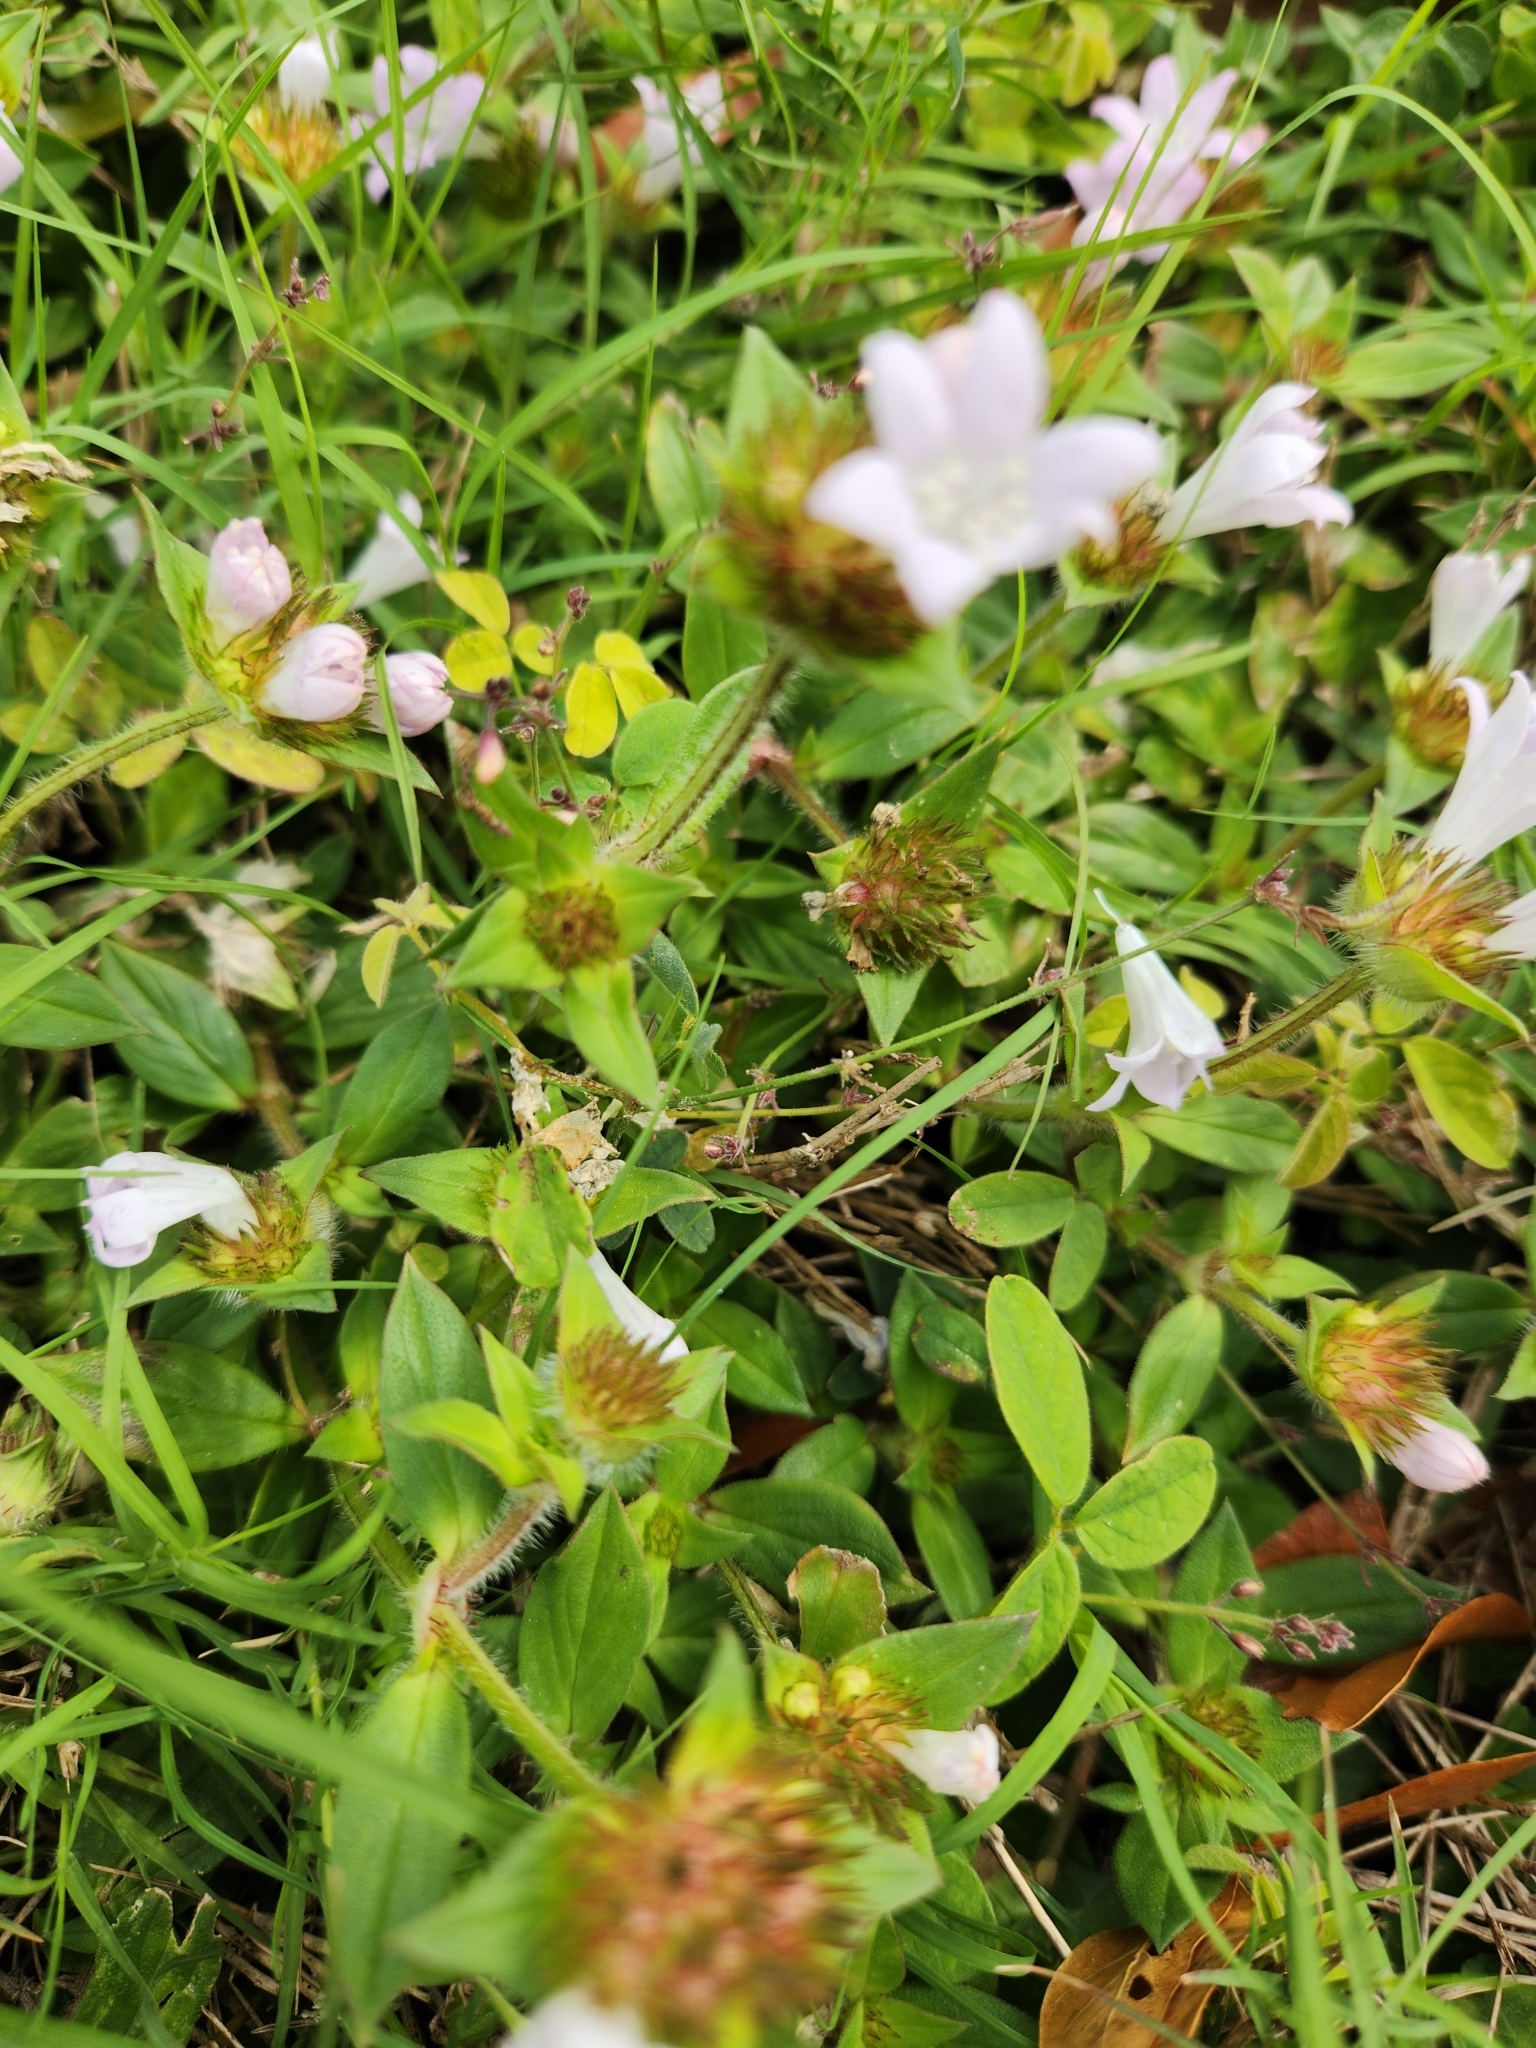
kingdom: Plantae
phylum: Tracheophyta
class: Magnoliopsida
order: Gentianales
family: Rubiaceae
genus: Richardia
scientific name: Richardia grandiflora
